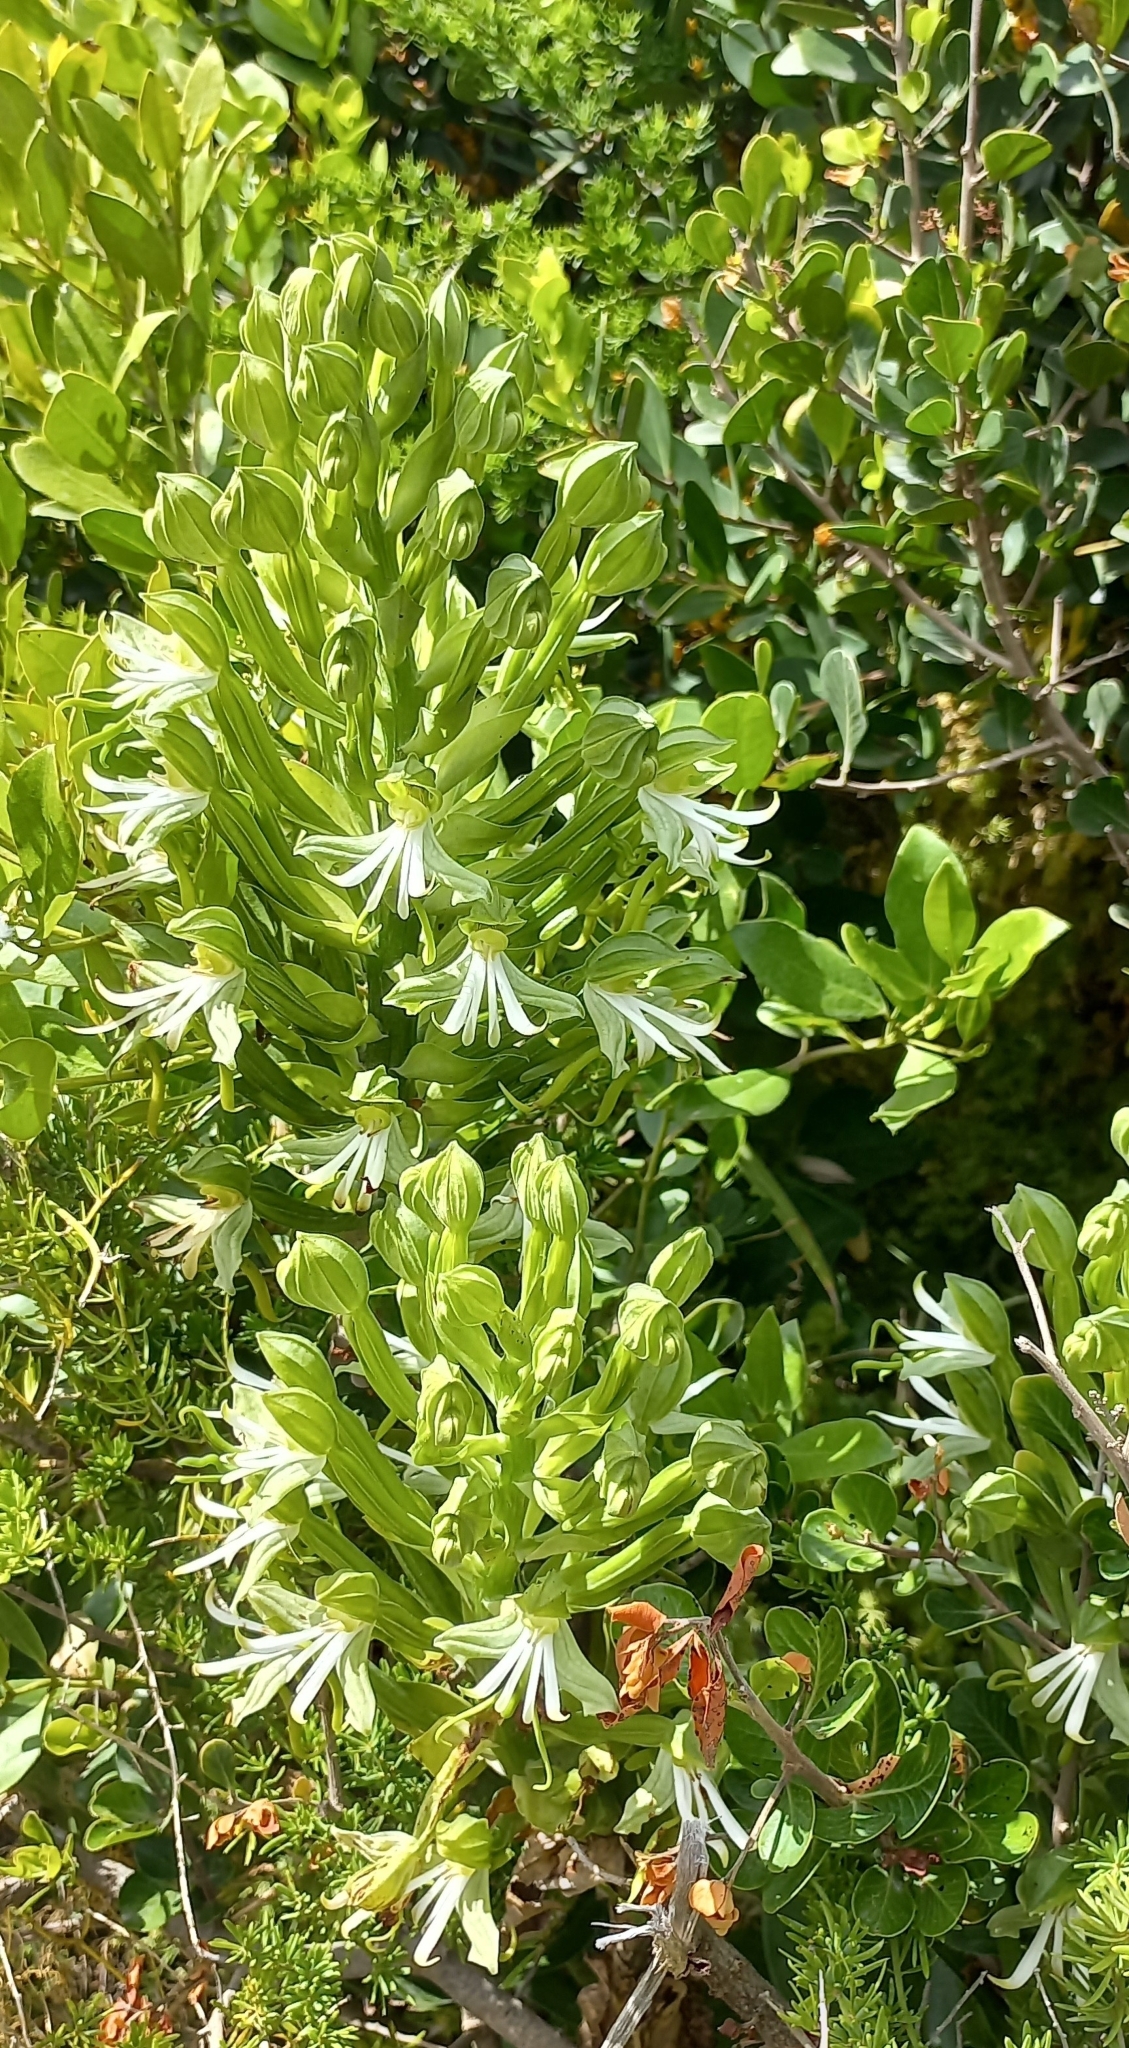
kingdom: Plantae
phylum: Tracheophyta
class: Liliopsida
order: Asparagales
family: Orchidaceae
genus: Bonatea
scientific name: Bonatea speciosa
